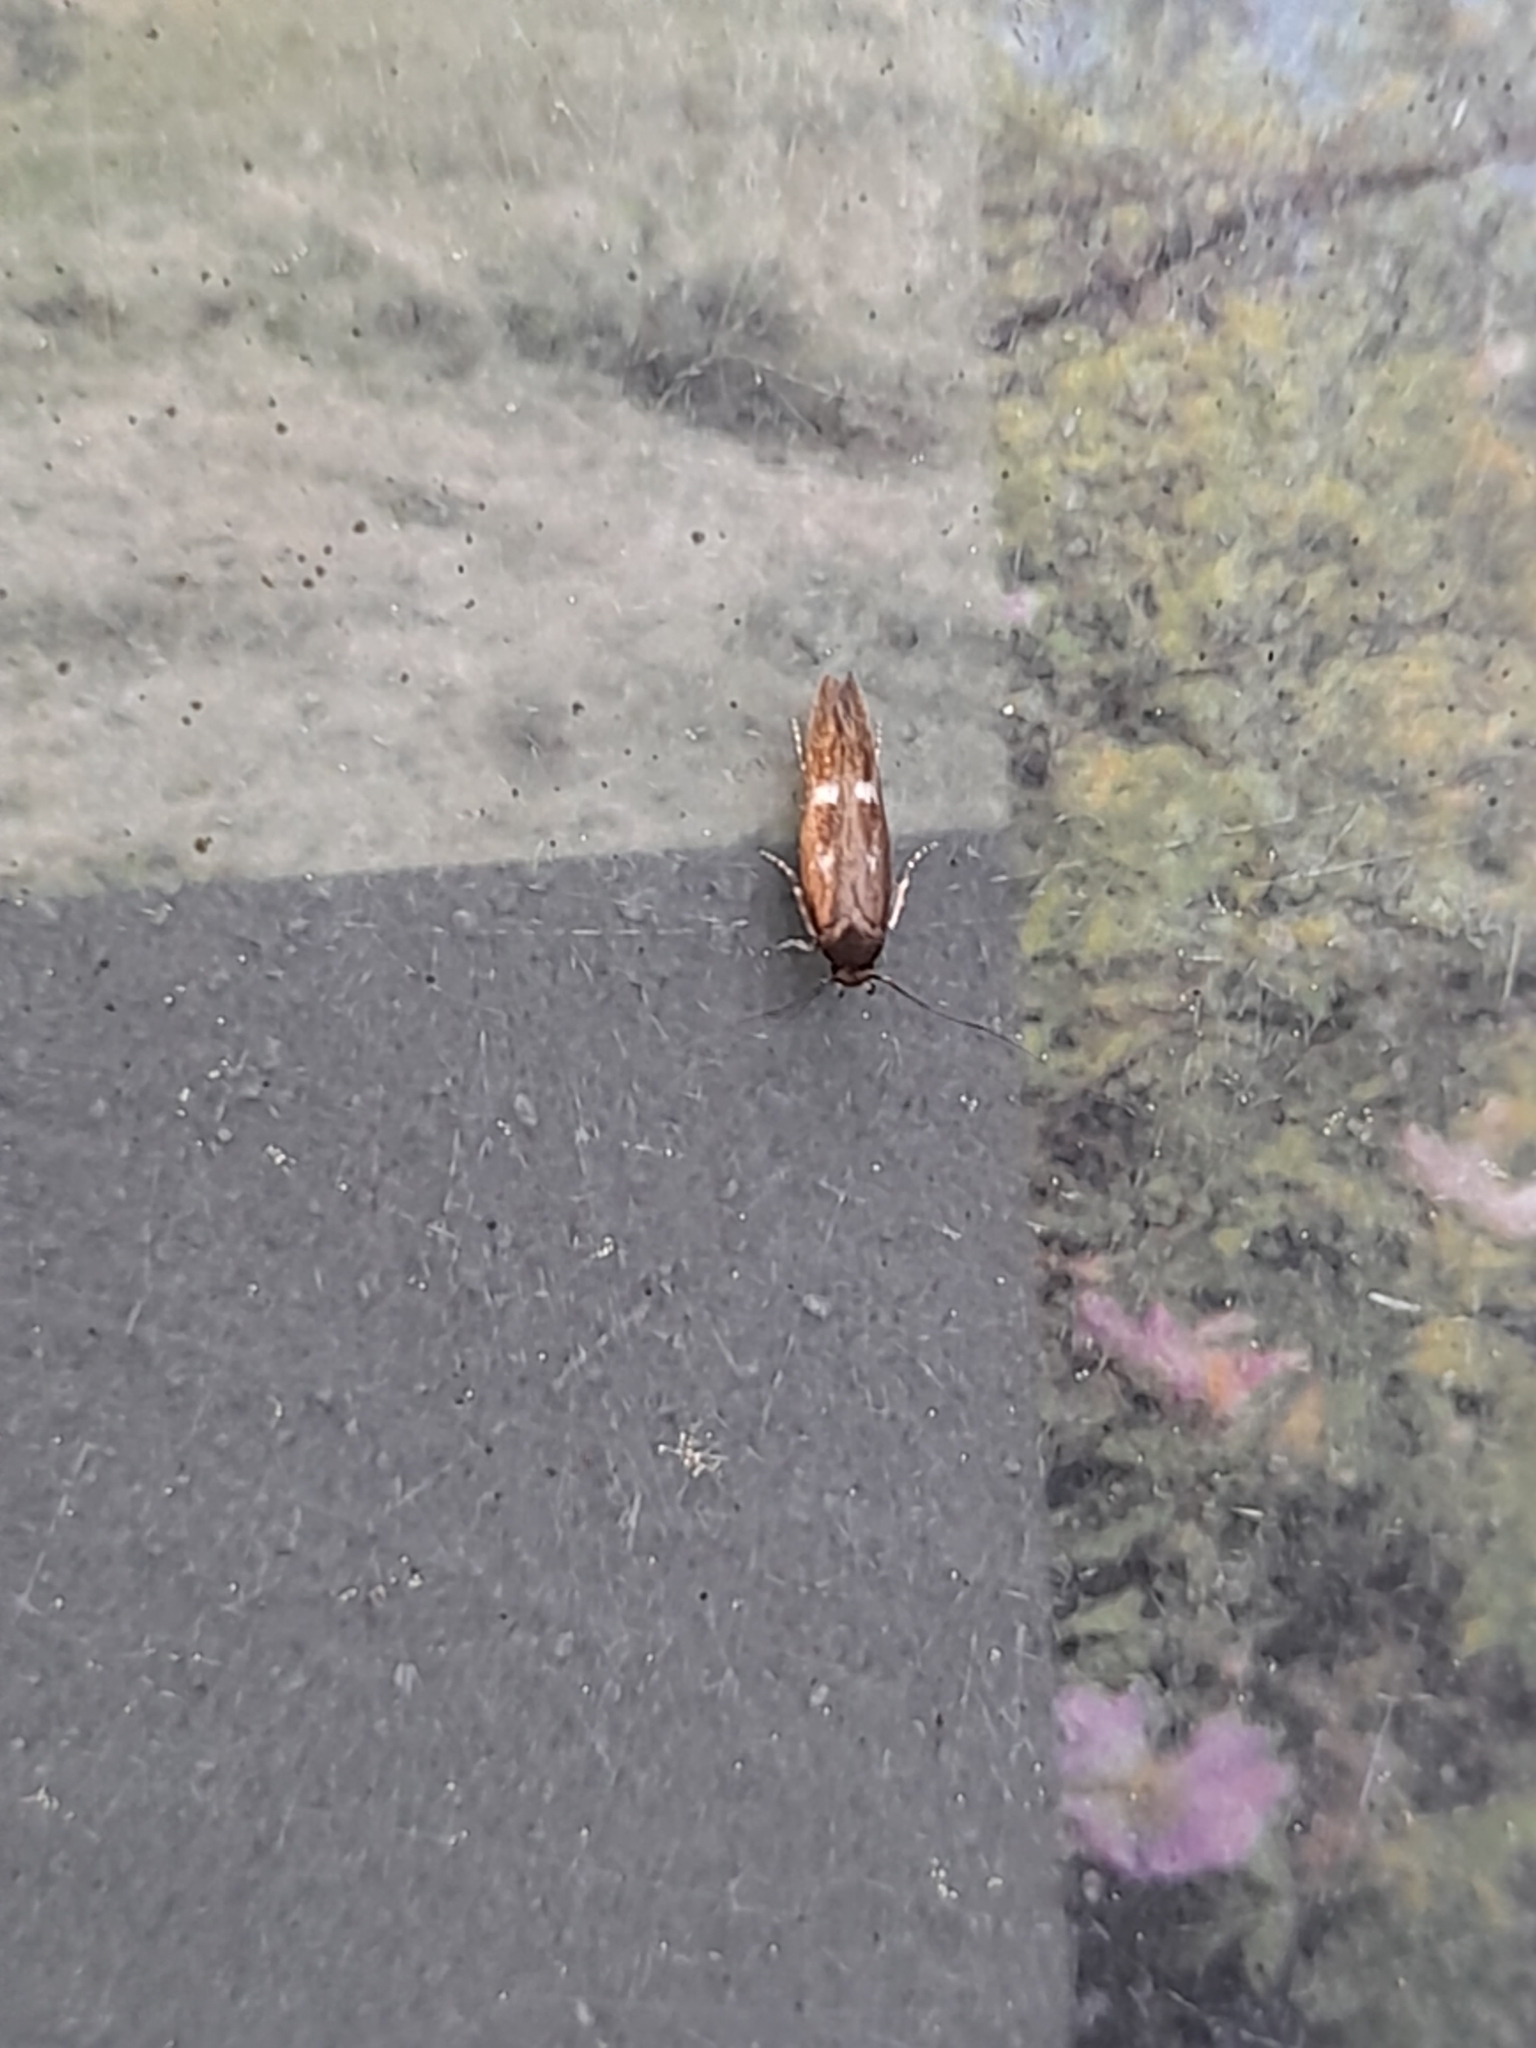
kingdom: Animalia
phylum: Arthropoda
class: Insecta
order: Lepidoptera
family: Momphidae
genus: Mompha
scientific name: Mompha langiella
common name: Clouded cosmet
